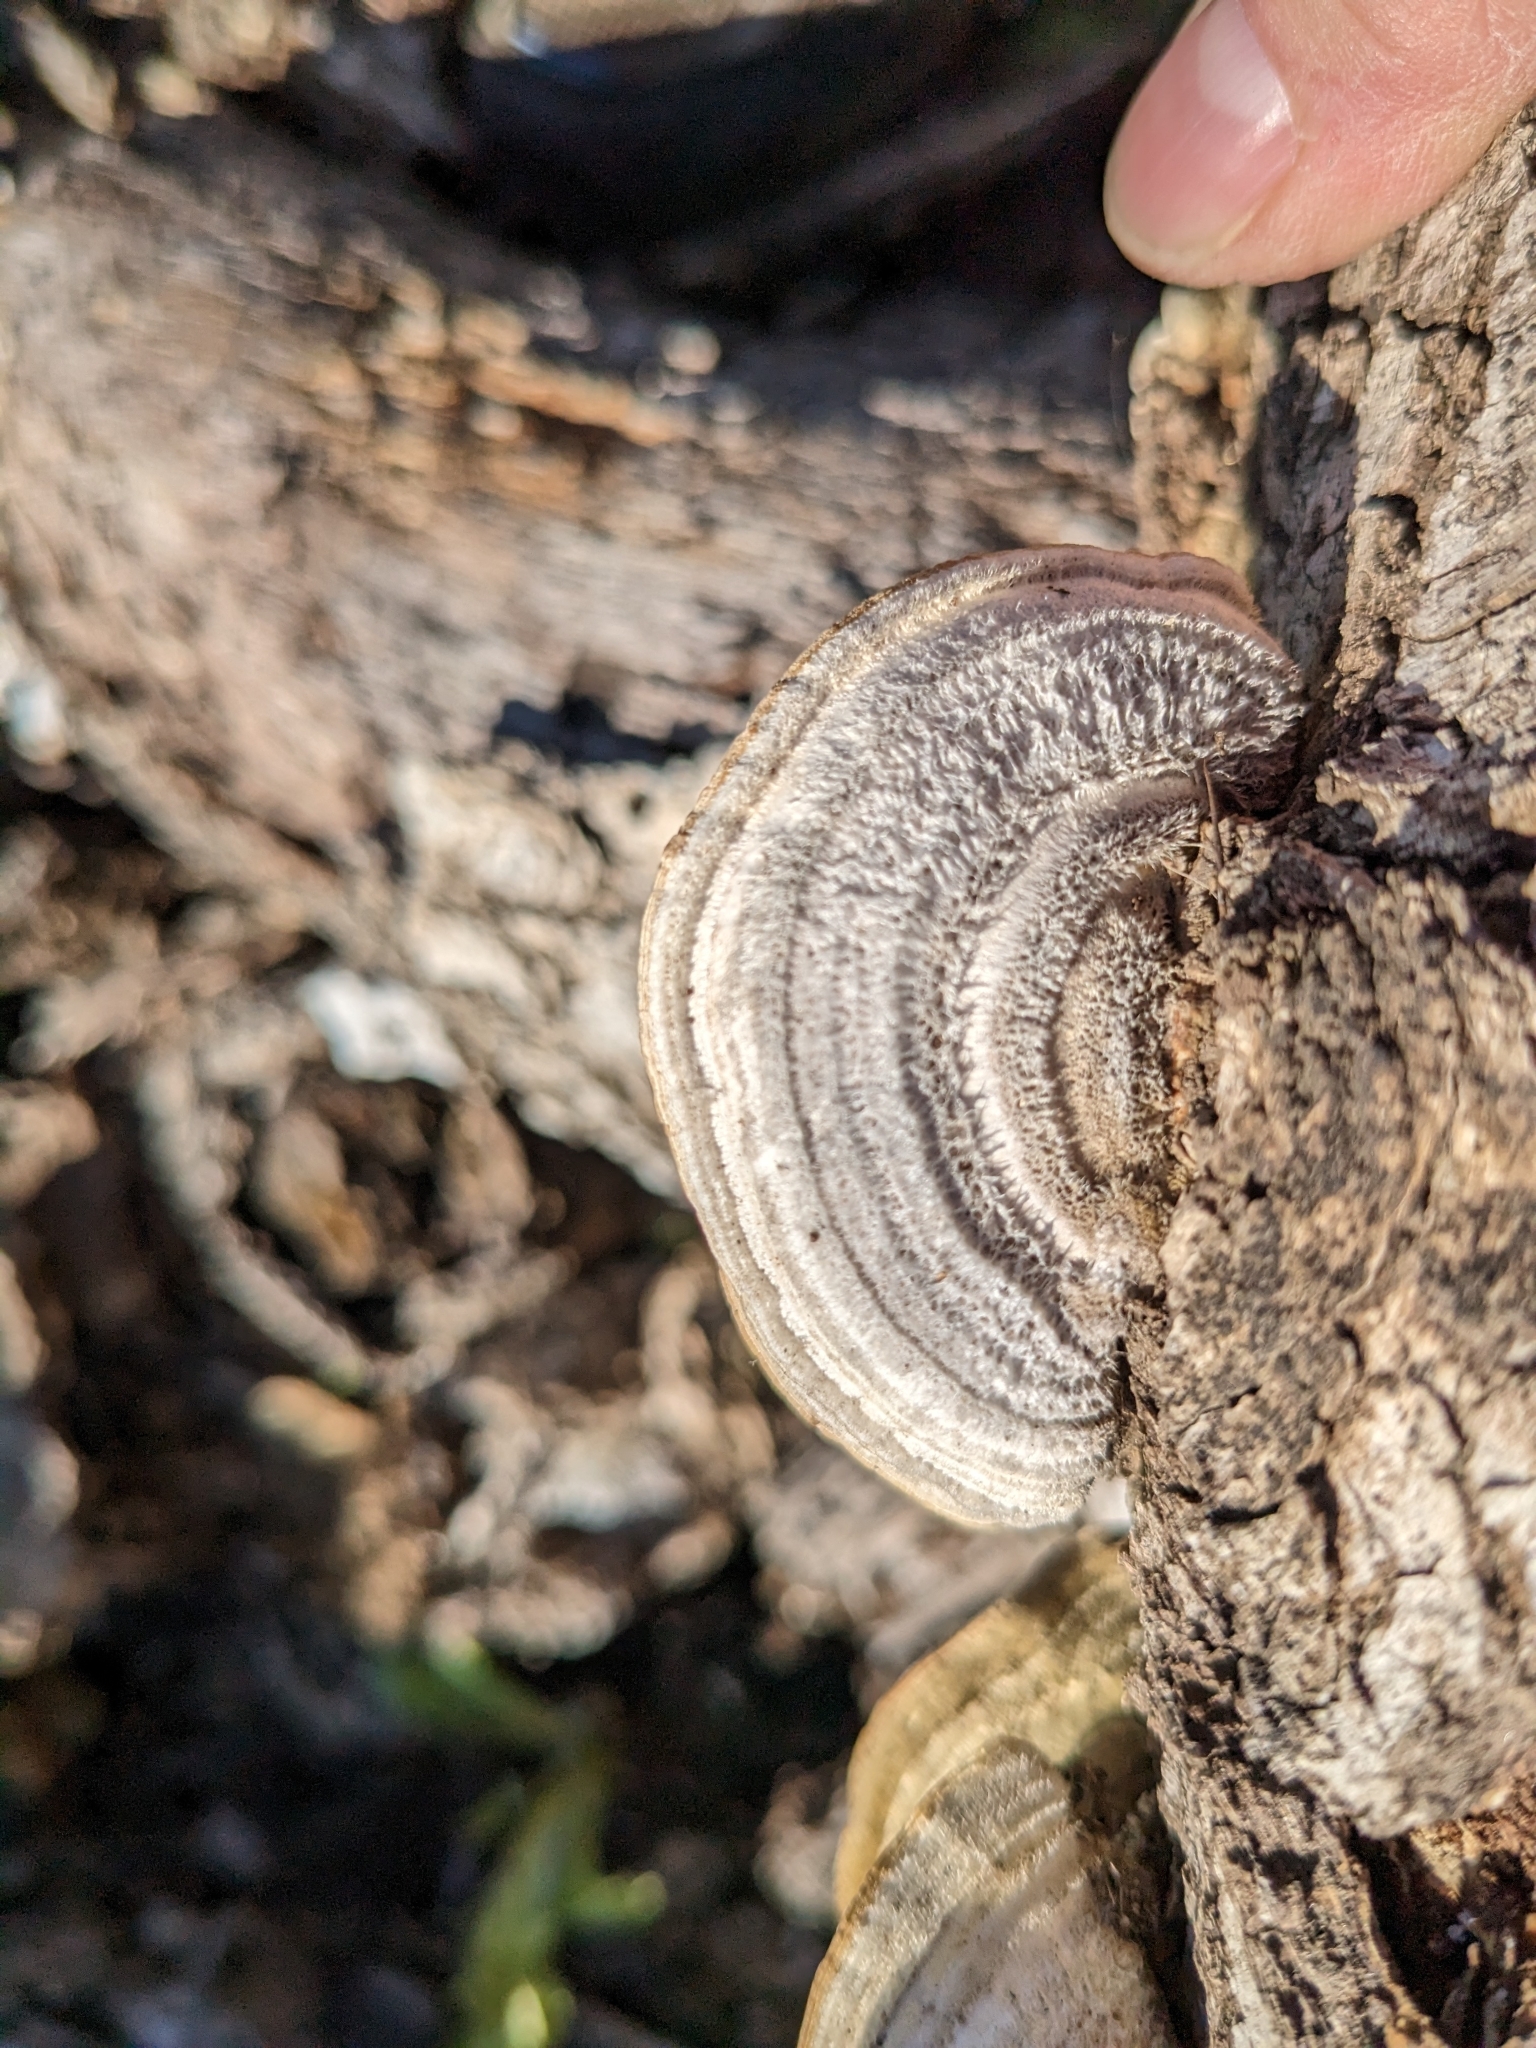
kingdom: Fungi
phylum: Basidiomycota
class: Agaricomycetes
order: Polyporales
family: Polyporaceae
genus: Lenzites
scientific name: Lenzites betulinus
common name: Birch mazegill
